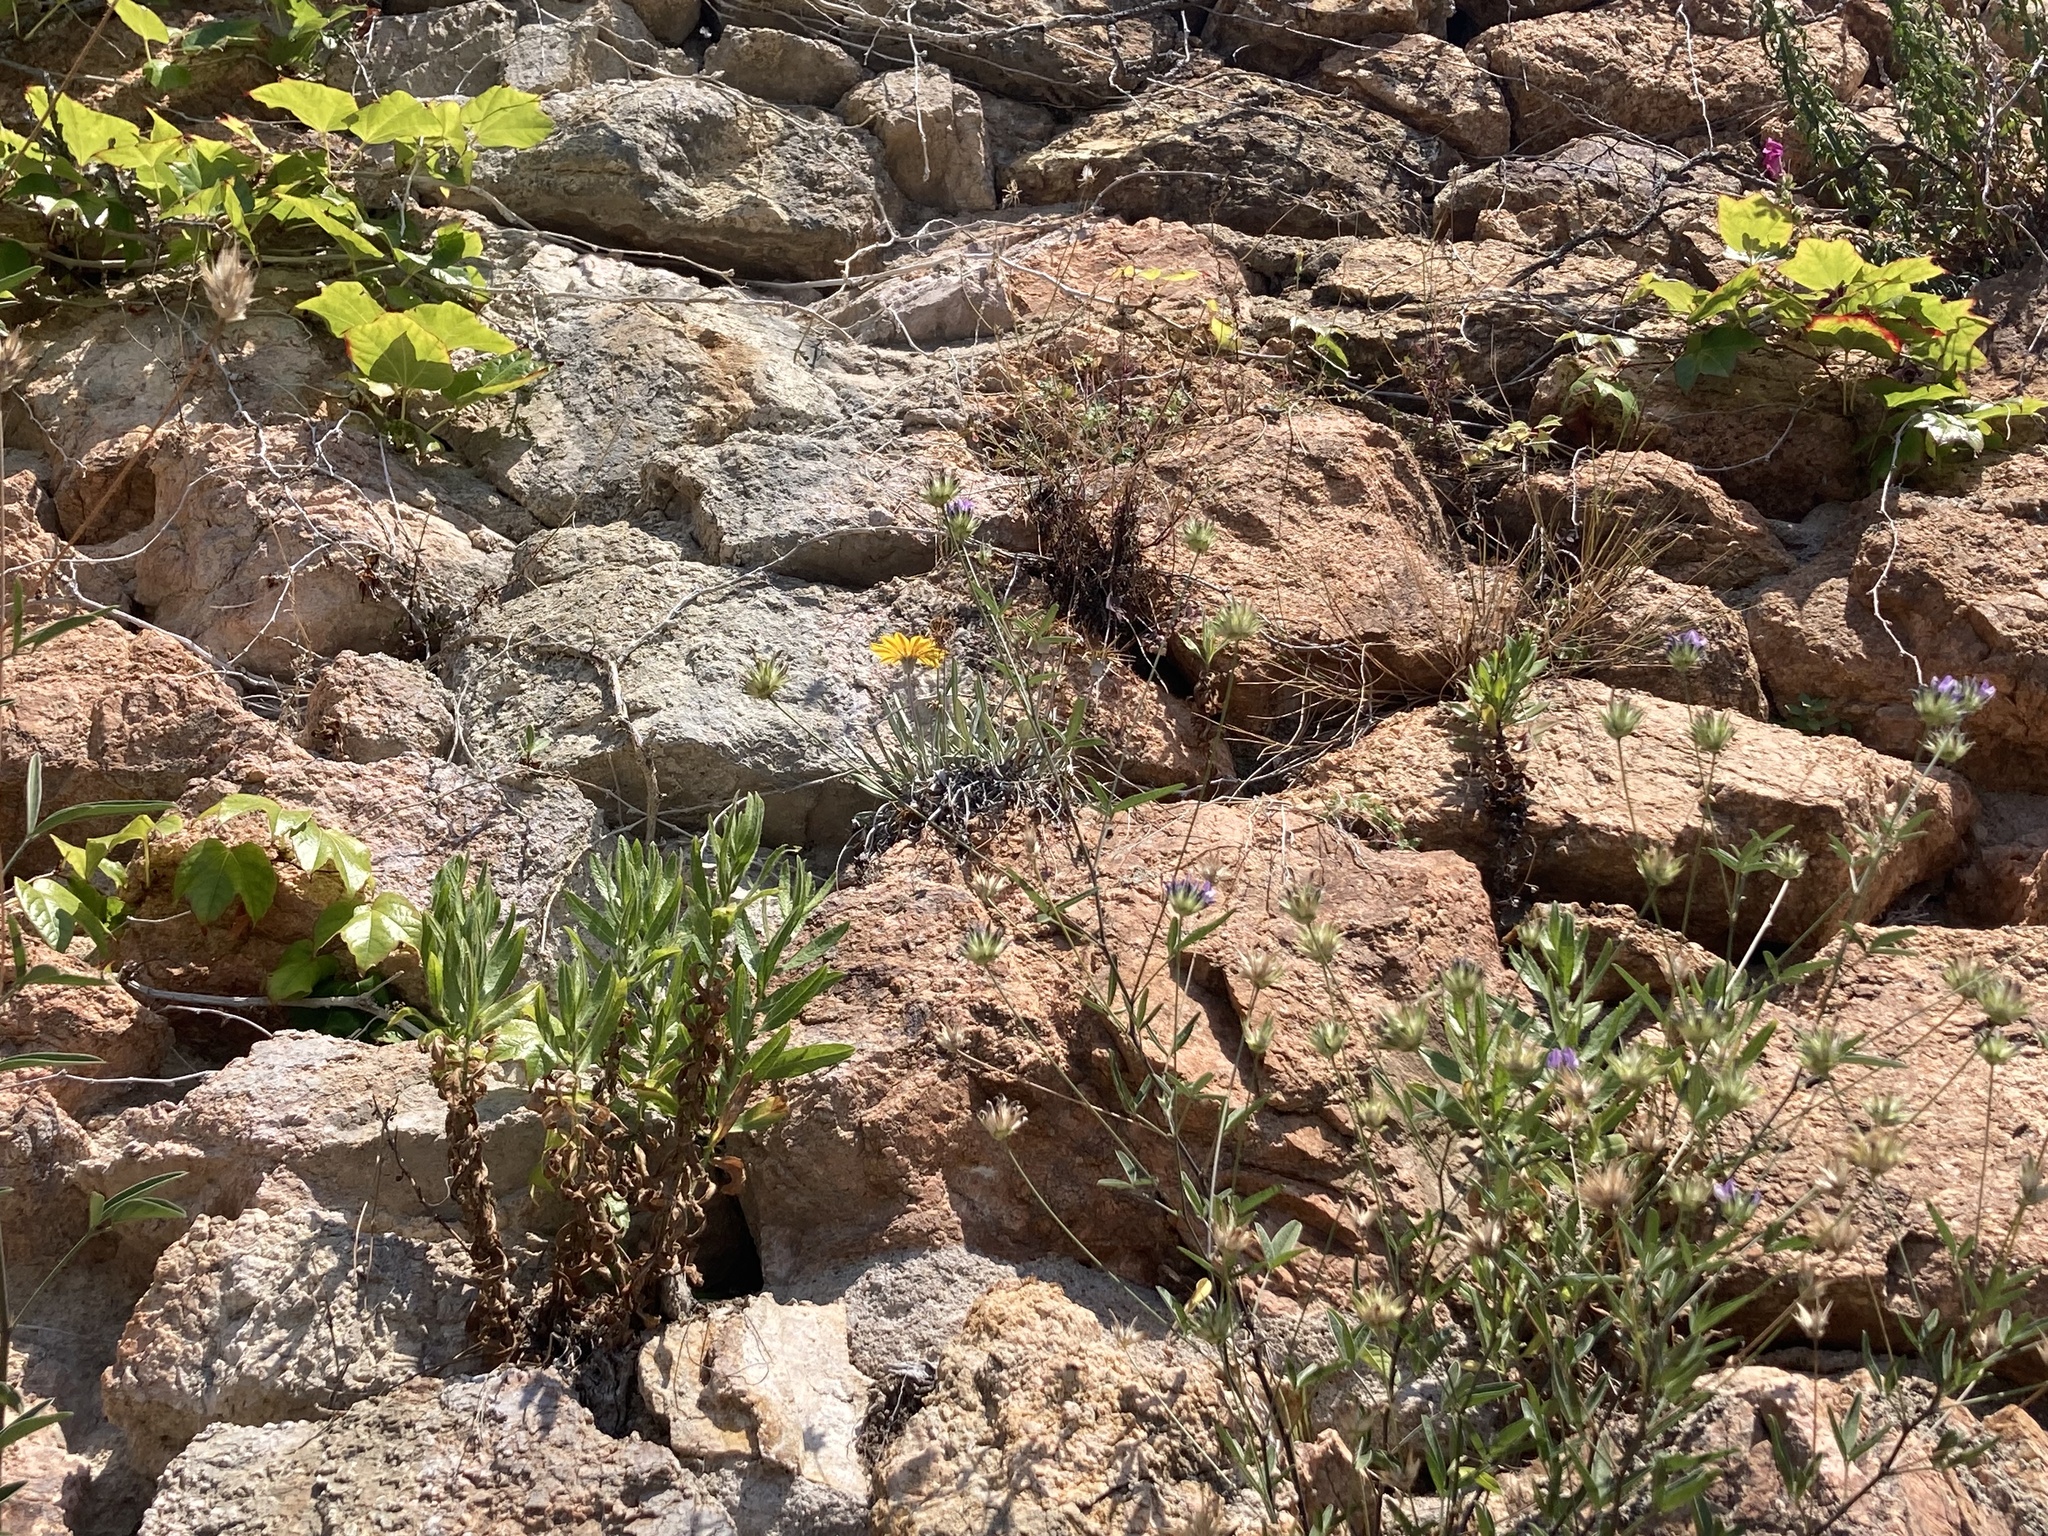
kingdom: Plantae
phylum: Tracheophyta
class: Magnoliopsida
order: Asterales
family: Asteraceae
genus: Gazania
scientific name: Gazania rigens
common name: Treasureflower
